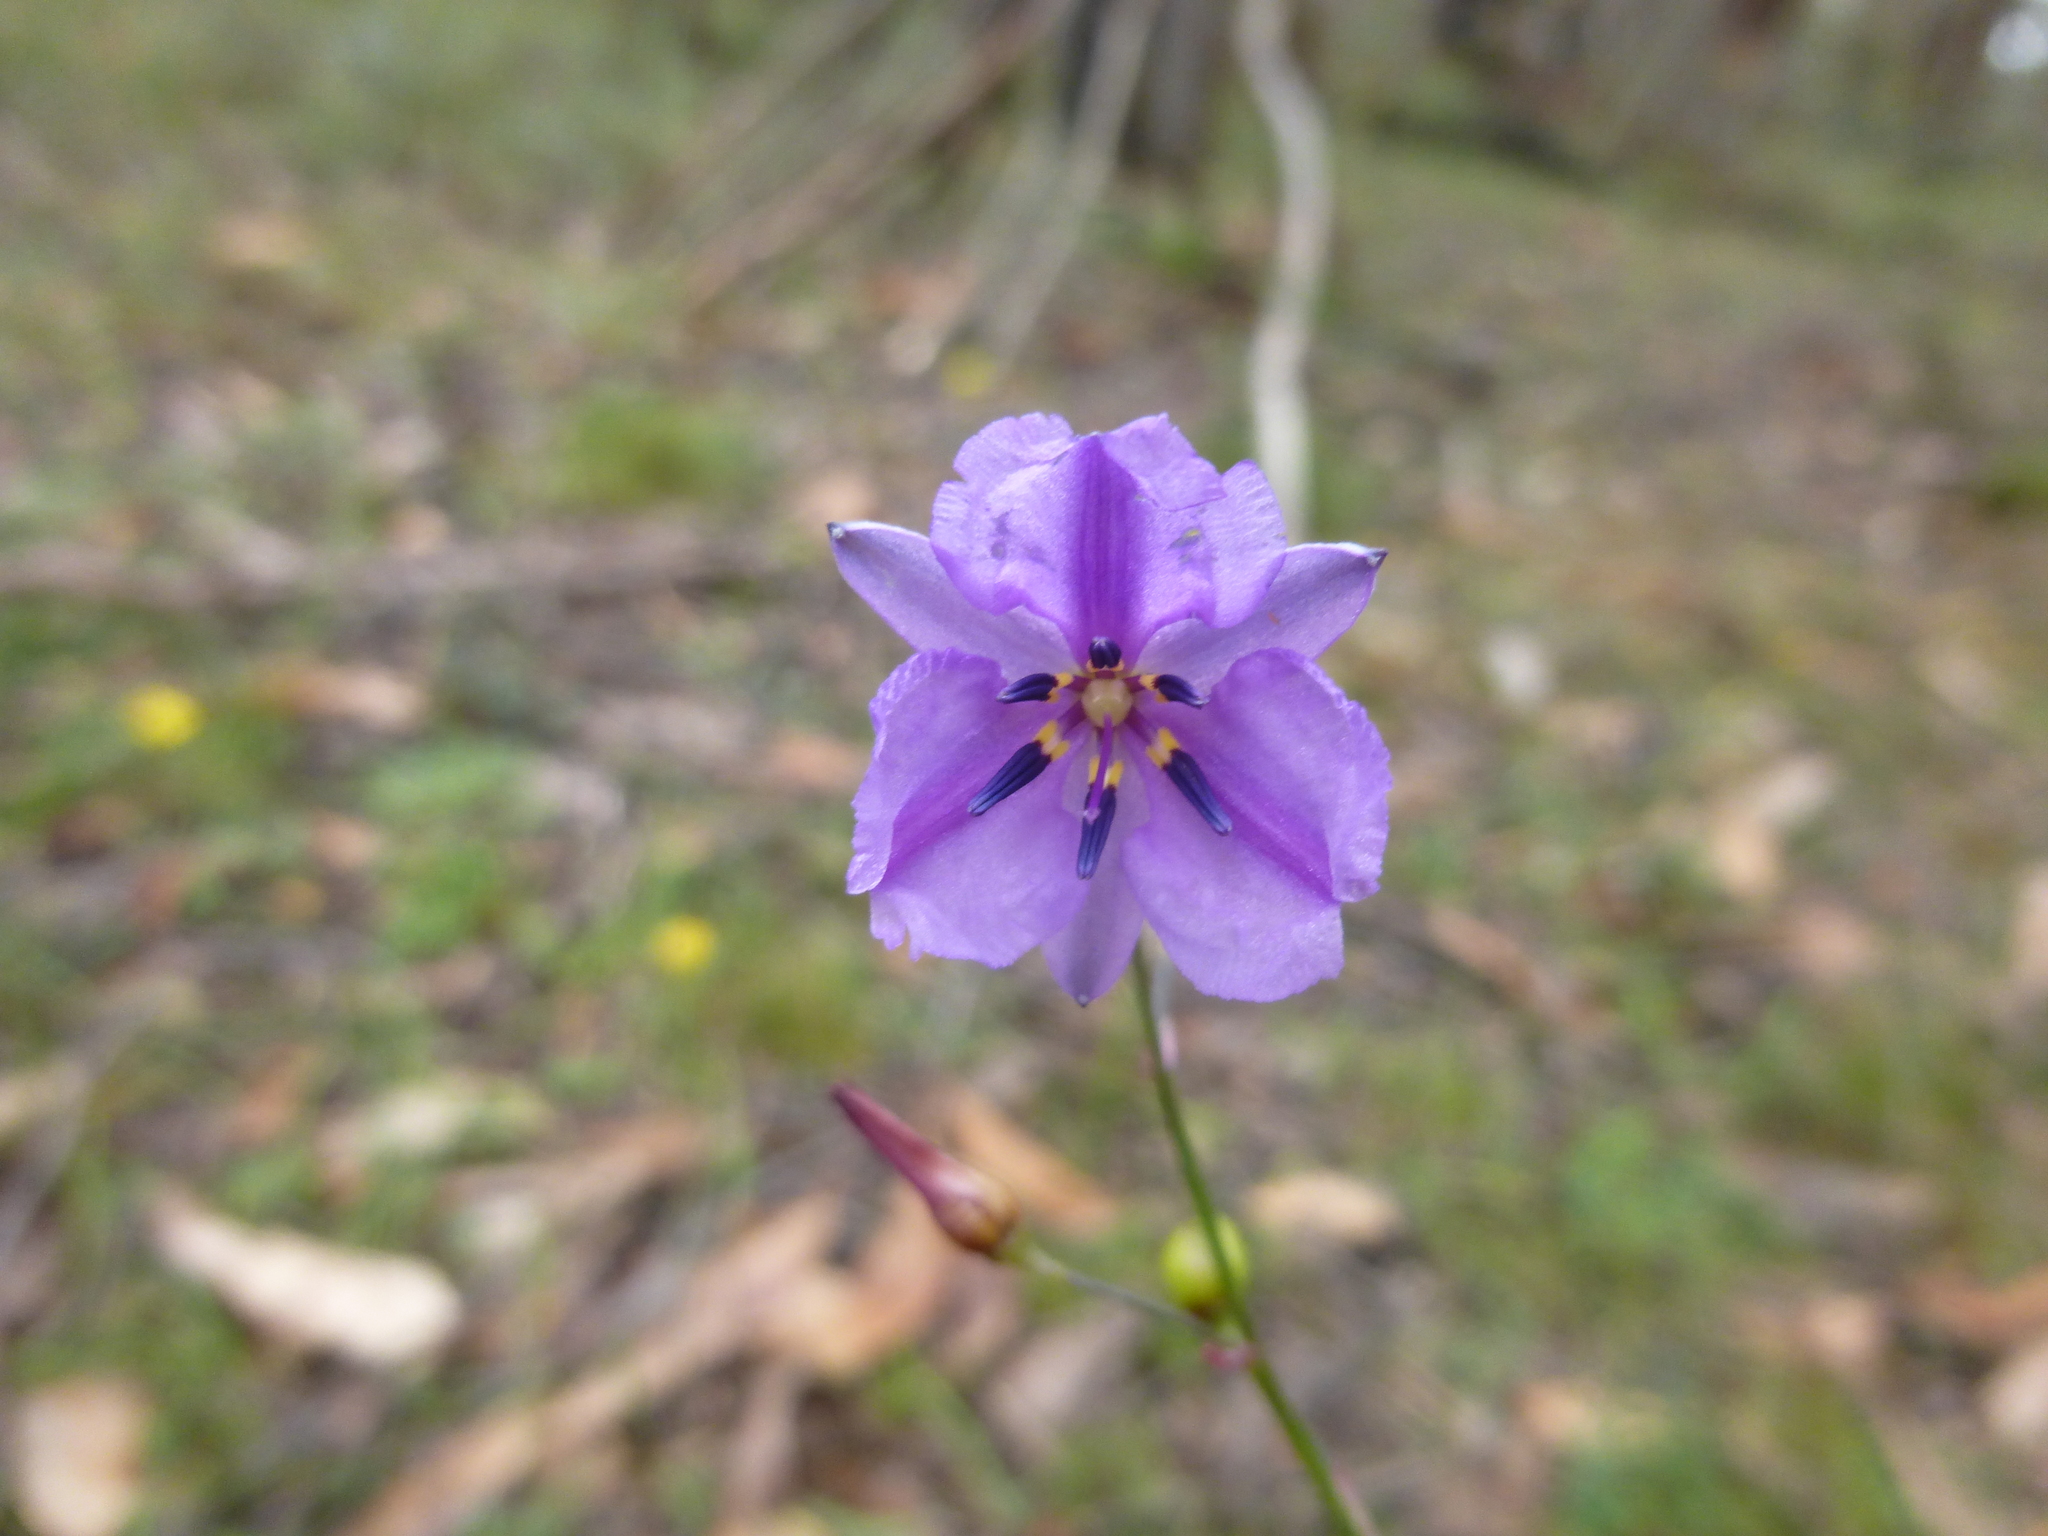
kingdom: Plantae
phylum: Tracheophyta
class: Liliopsida
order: Asparagales
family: Asparagaceae
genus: Arthropodium
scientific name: Arthropodium strictum
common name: Chocolate-lily
